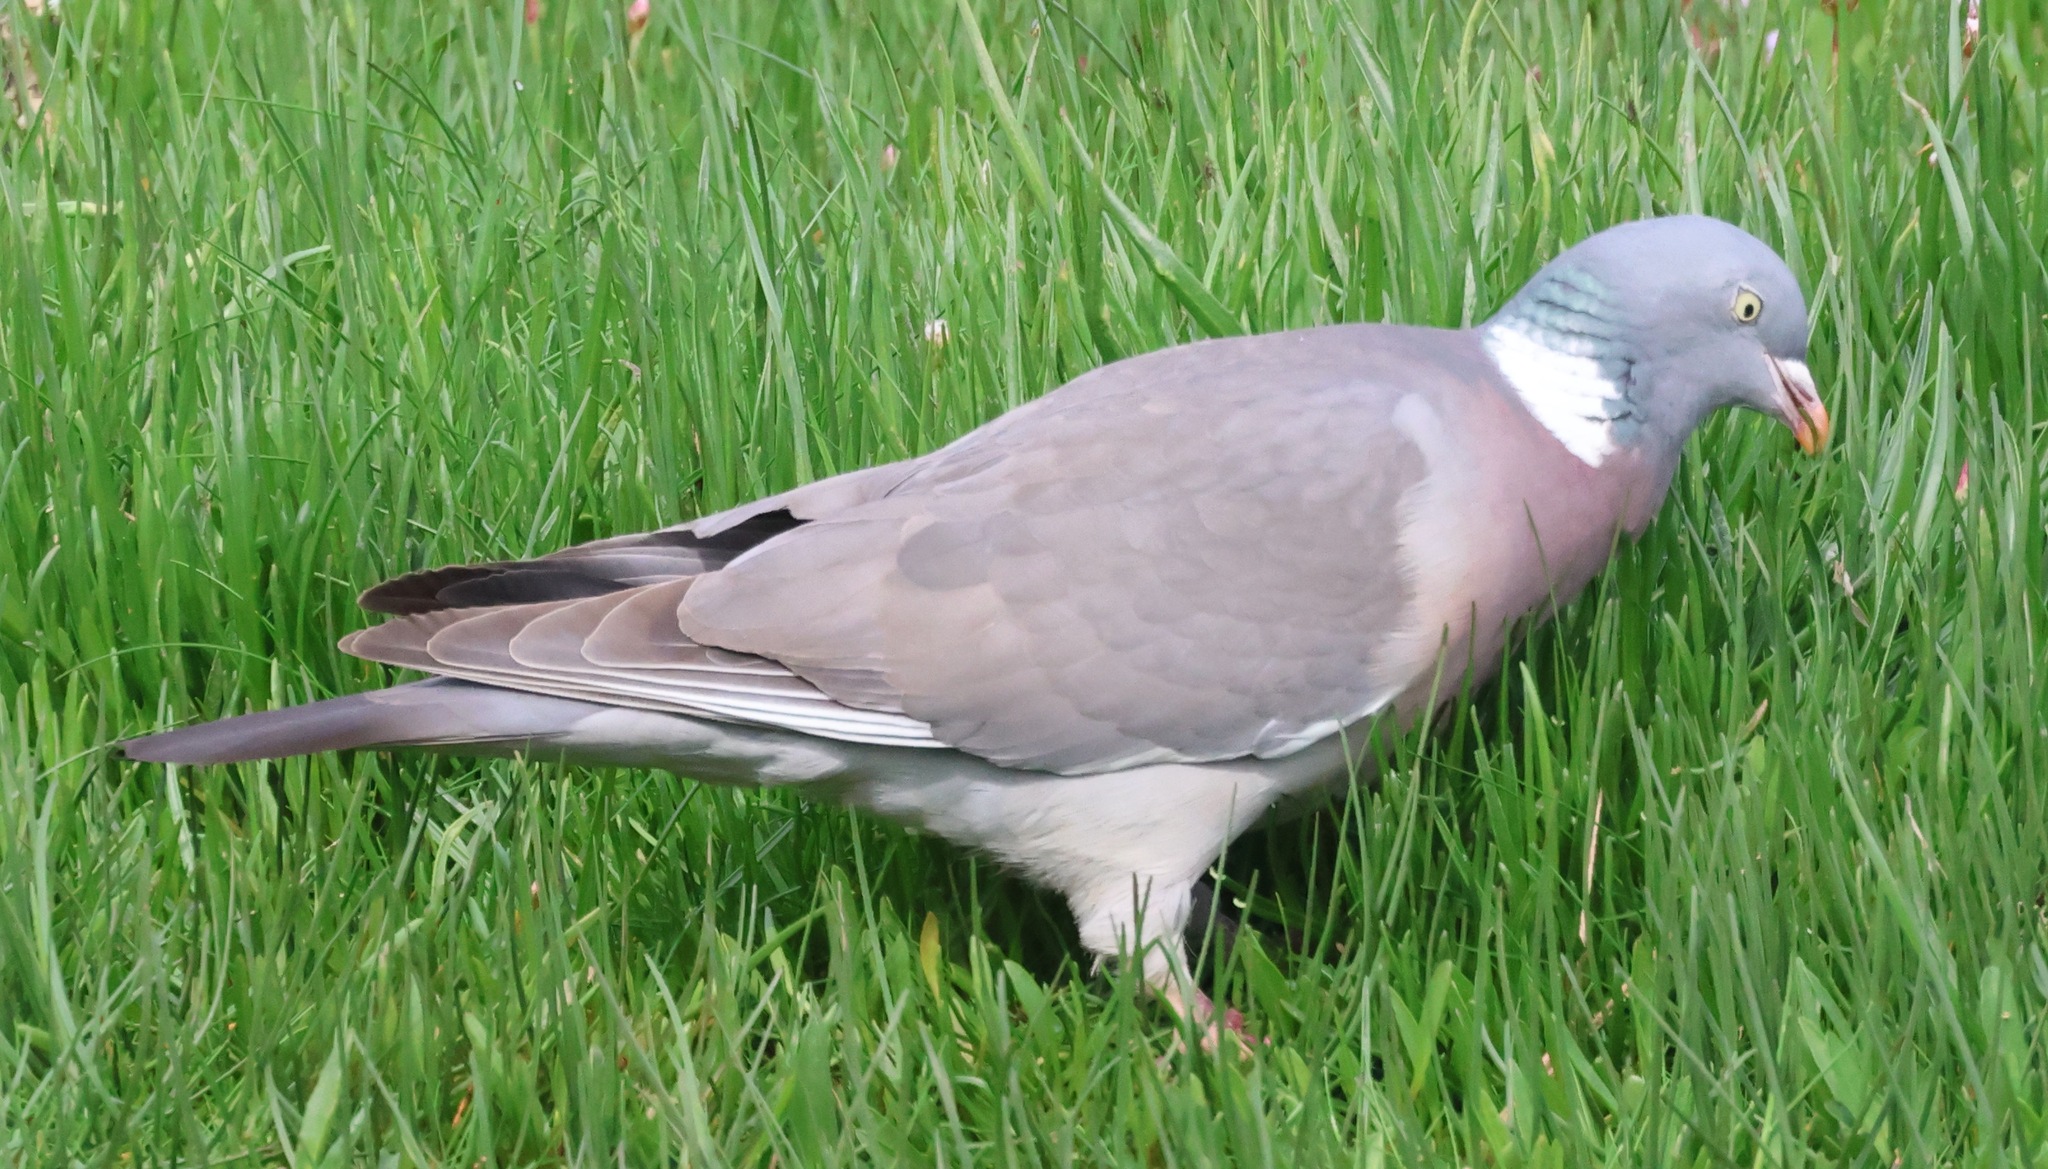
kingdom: Animalia
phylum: Chordata
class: Aves
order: Columbiformes
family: Columbidae
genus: Columba
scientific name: Columba palumbus
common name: Common wood pigeon
